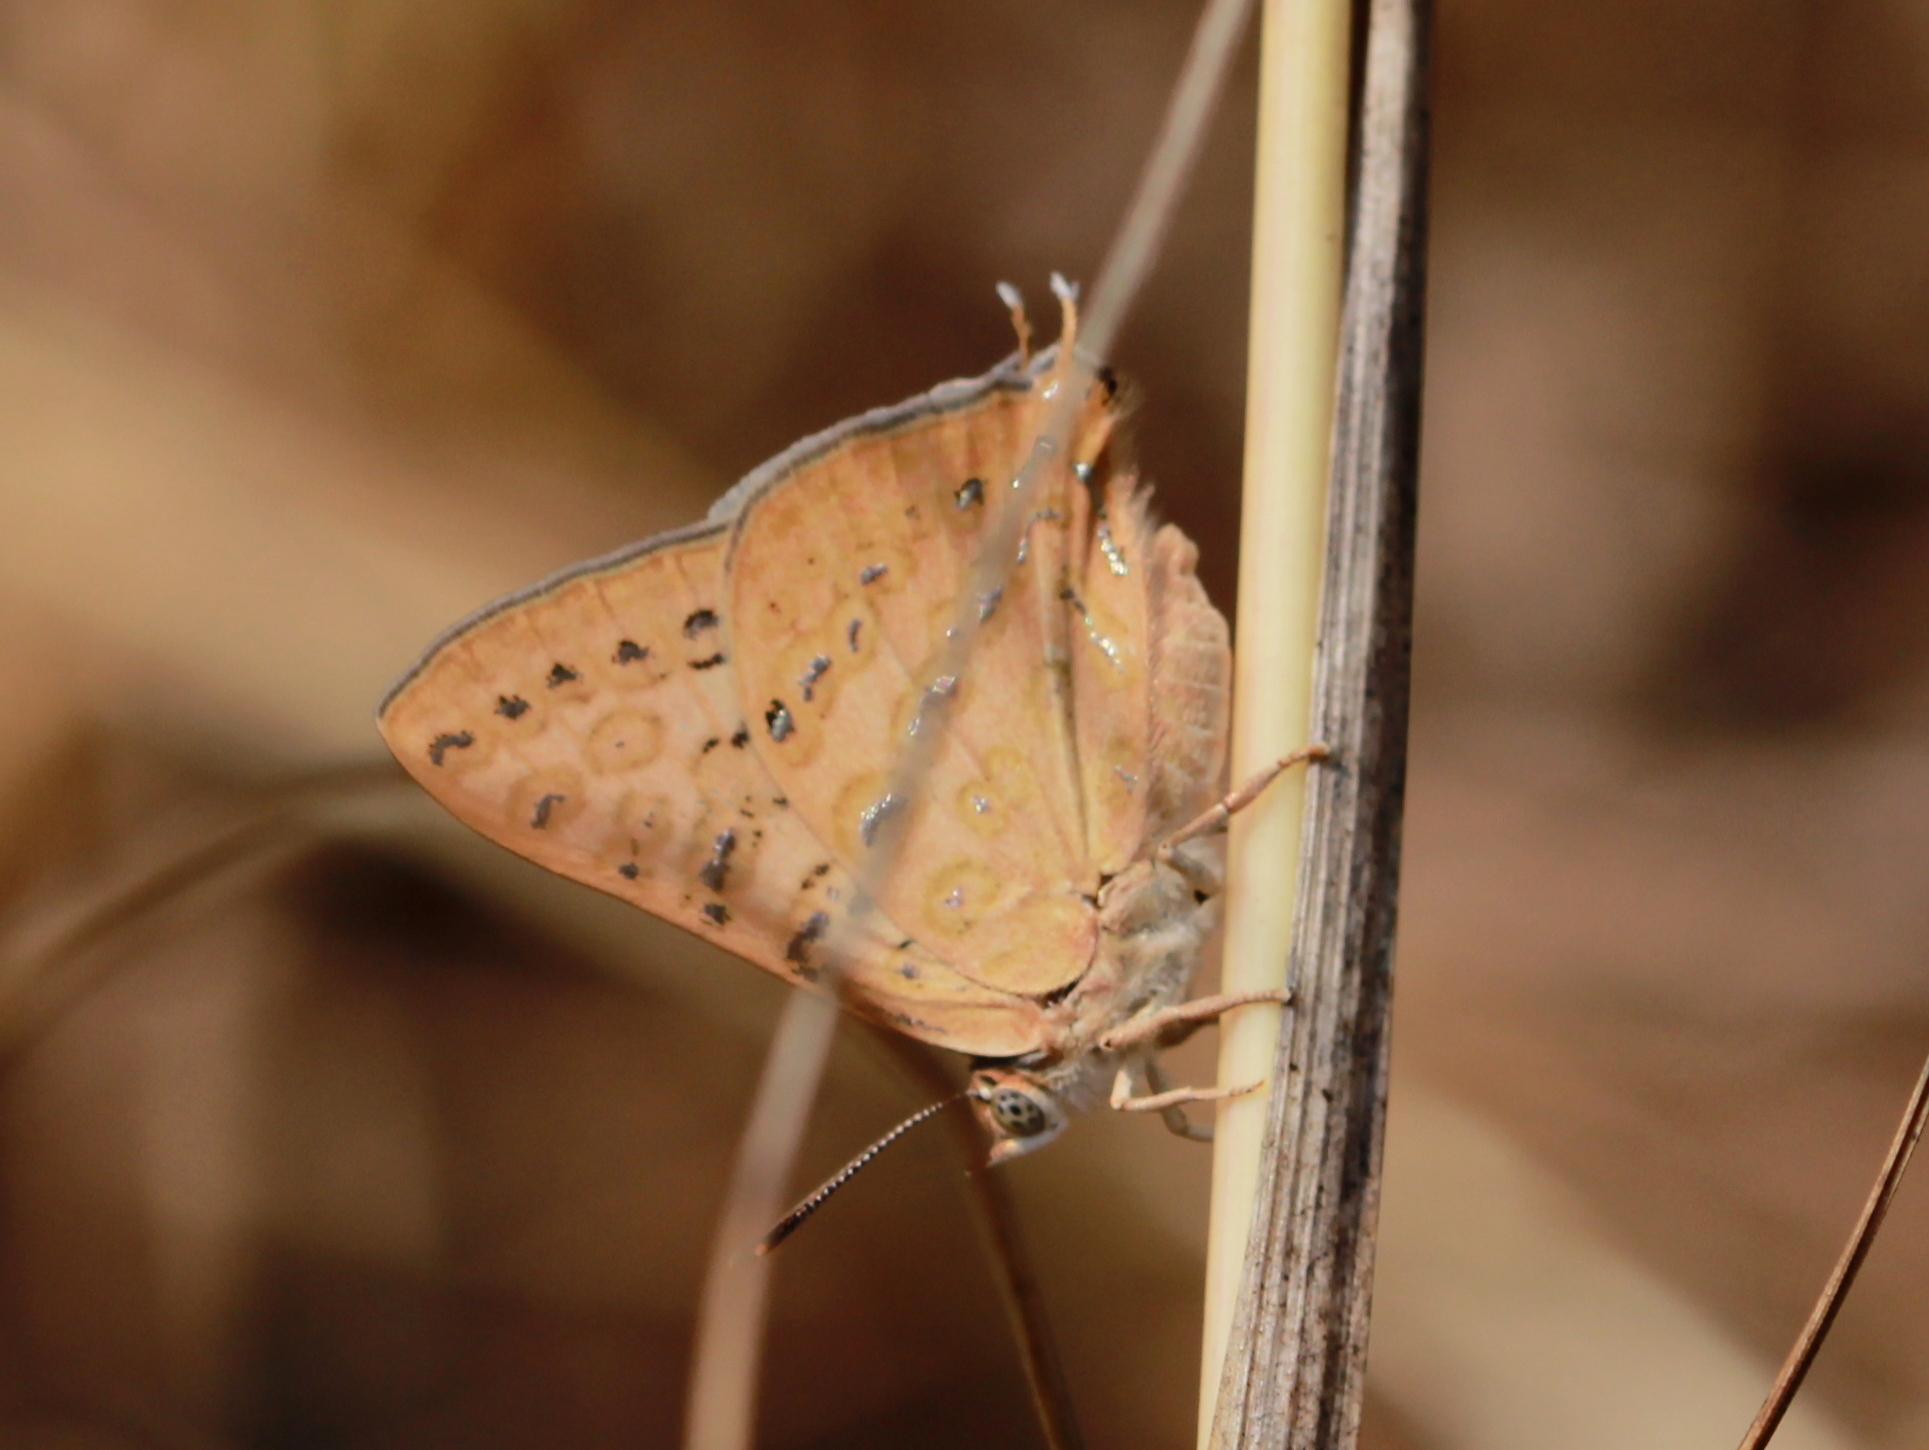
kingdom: Animalia
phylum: Arthropoda
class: Insecta
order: Lepidoptera
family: Lycaenidae
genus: Aphnaeus
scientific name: Aphnaeus lilacinus
